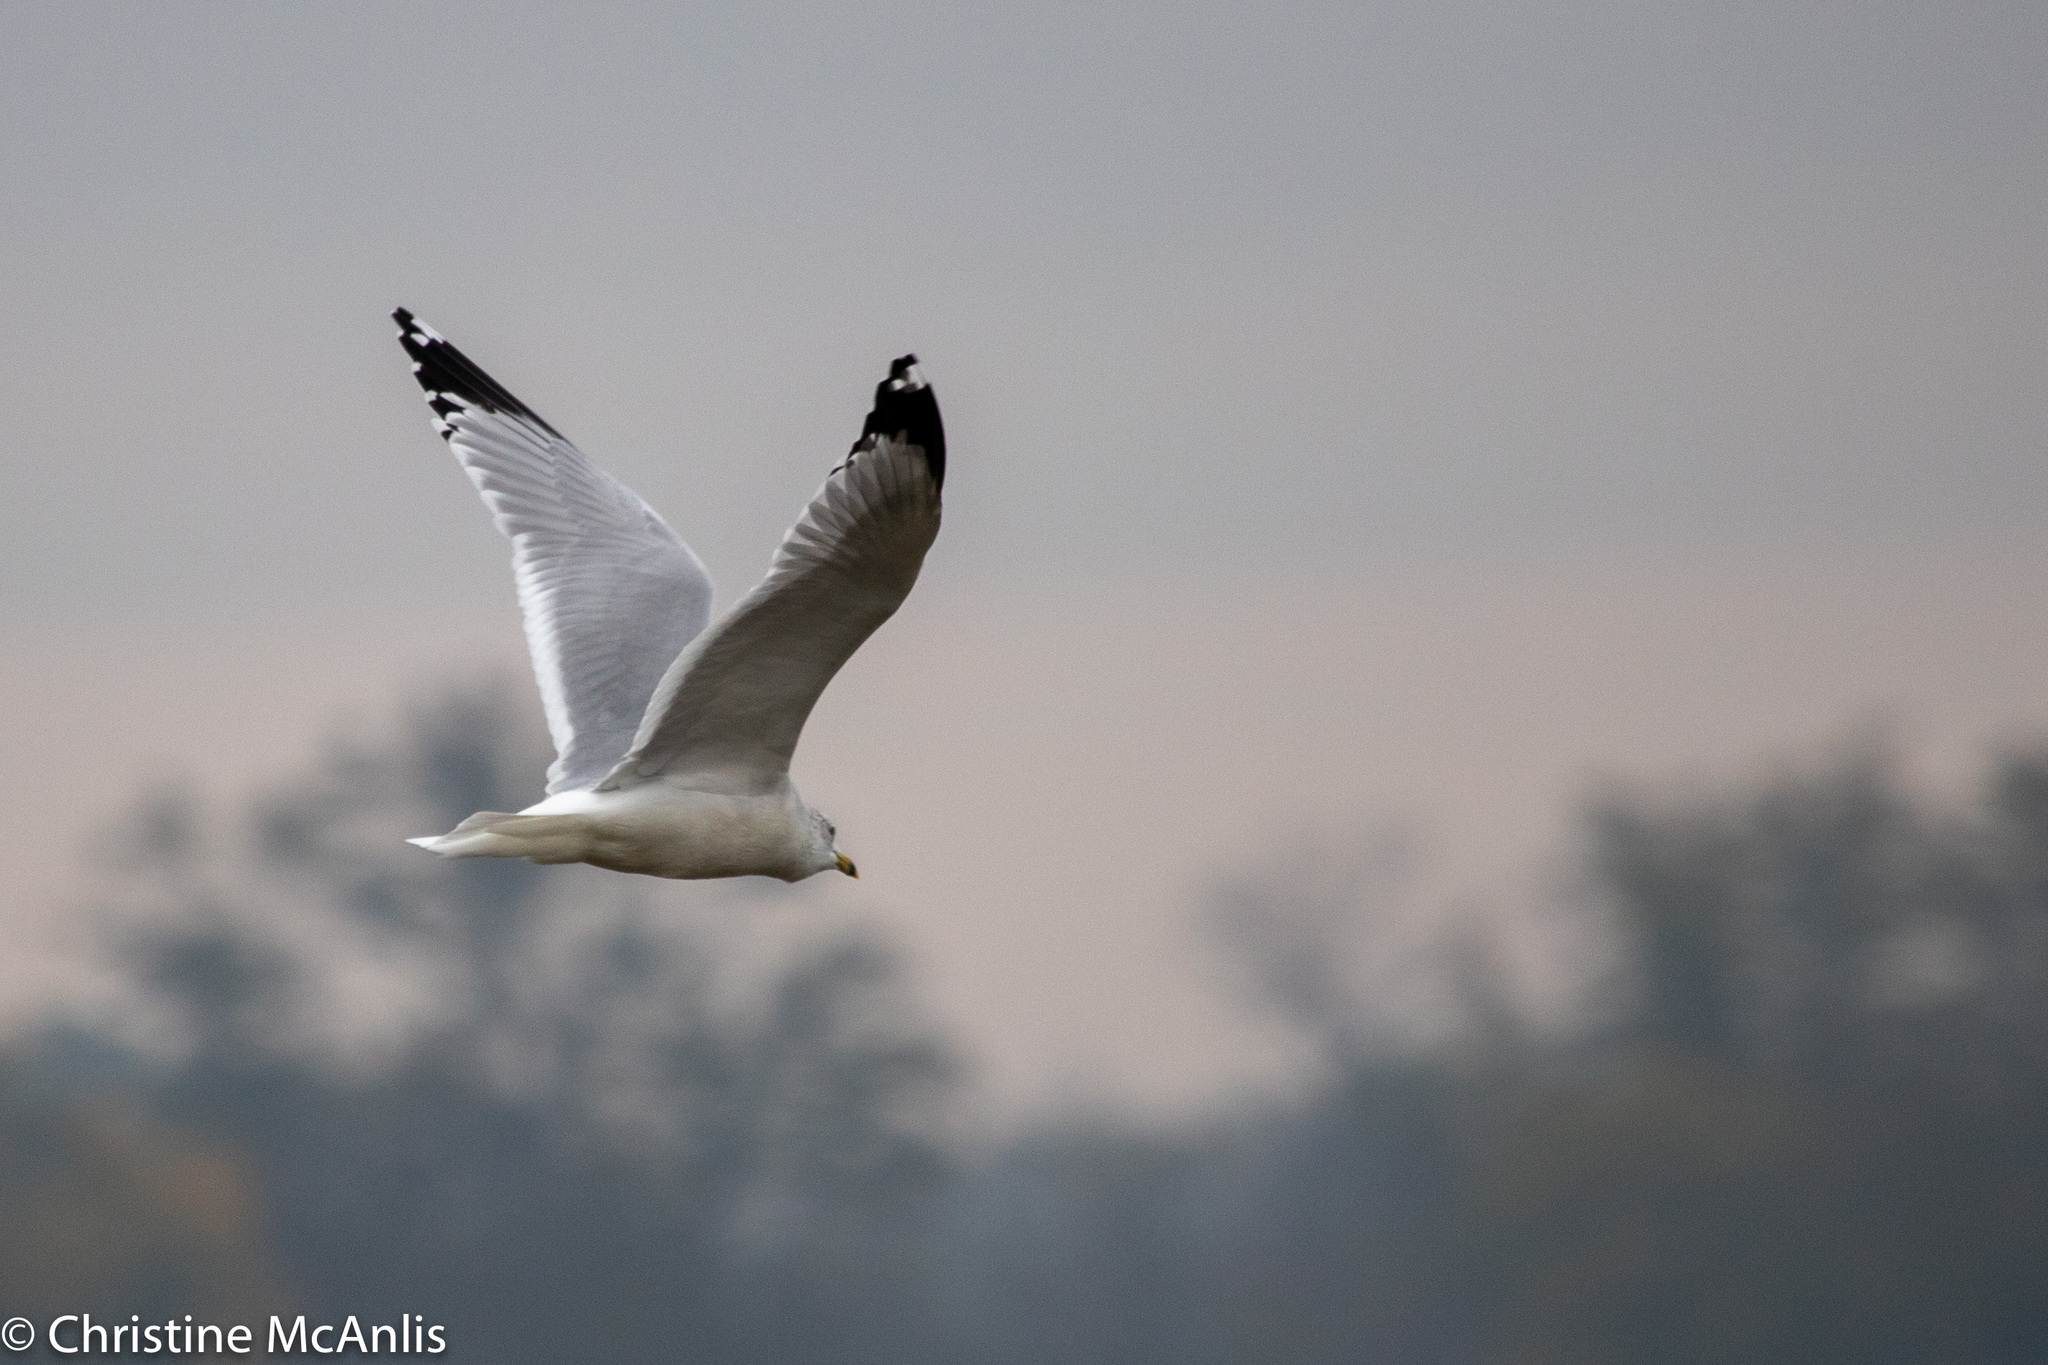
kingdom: Animalia
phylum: Chordata
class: Aves
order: Charadriiformes
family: Laridae
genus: Larus
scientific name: Larus delawarensis
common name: Ring-billed gull
